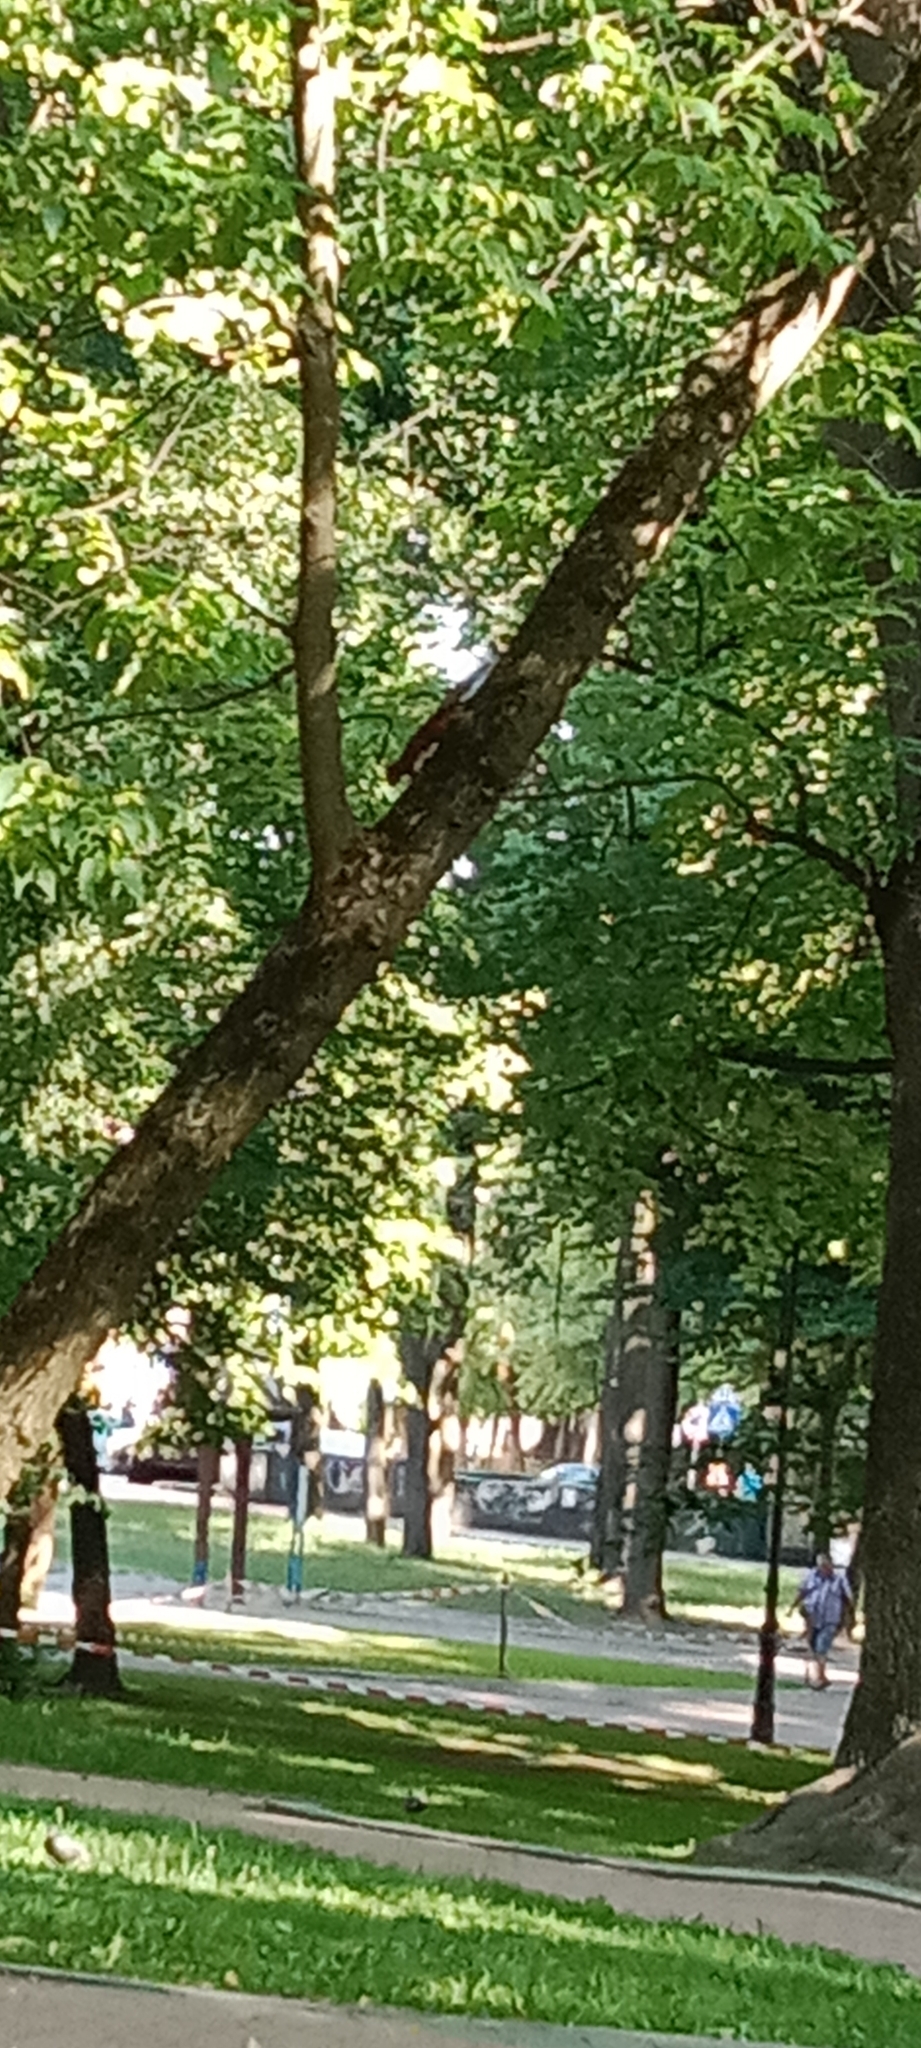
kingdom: Animalia
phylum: Chordata
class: Mammalia
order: Rodentia
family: Sciuridae
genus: Sciurus
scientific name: Sciurus vulgaris
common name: Eurasian red squirrel
